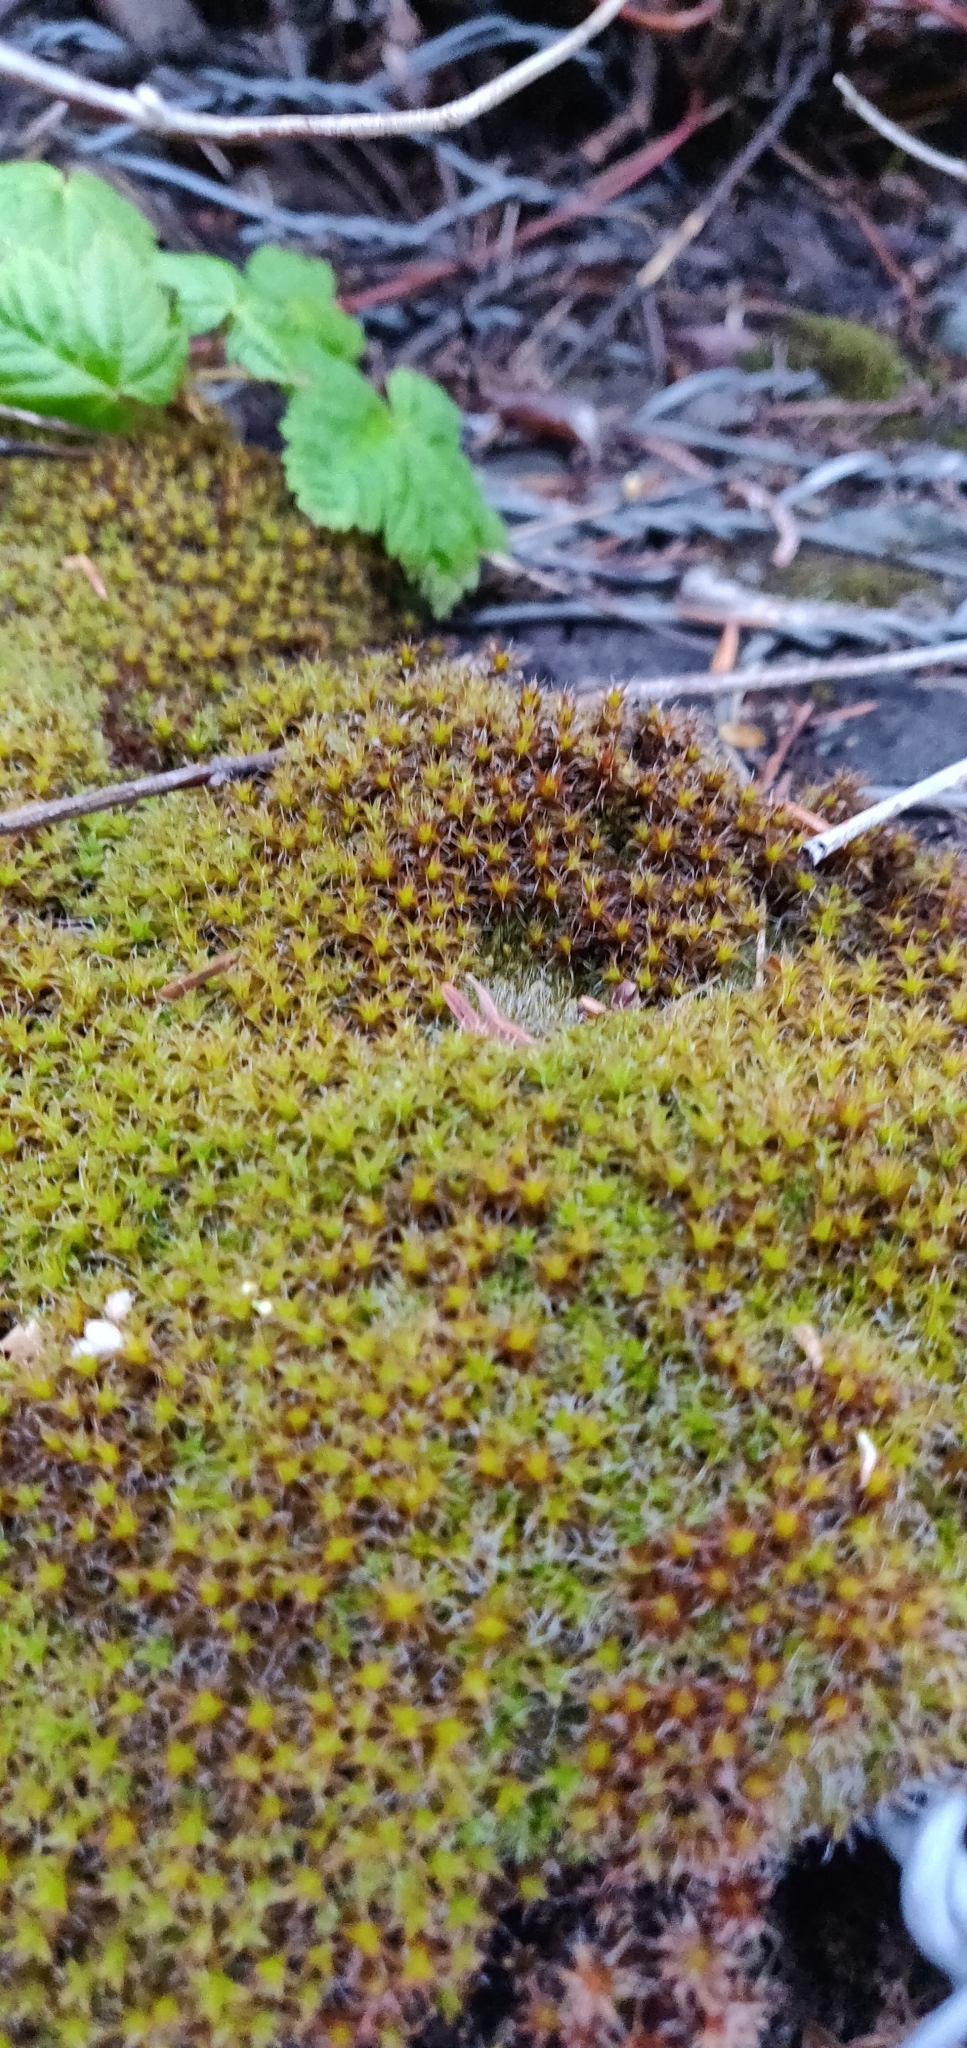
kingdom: Plantae
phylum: Bryophyta
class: Bryopsida
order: Pottiales
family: Pottiaceae
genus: Syntrichia
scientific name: Syntrichia ruralis
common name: Sidewalk screw moss
